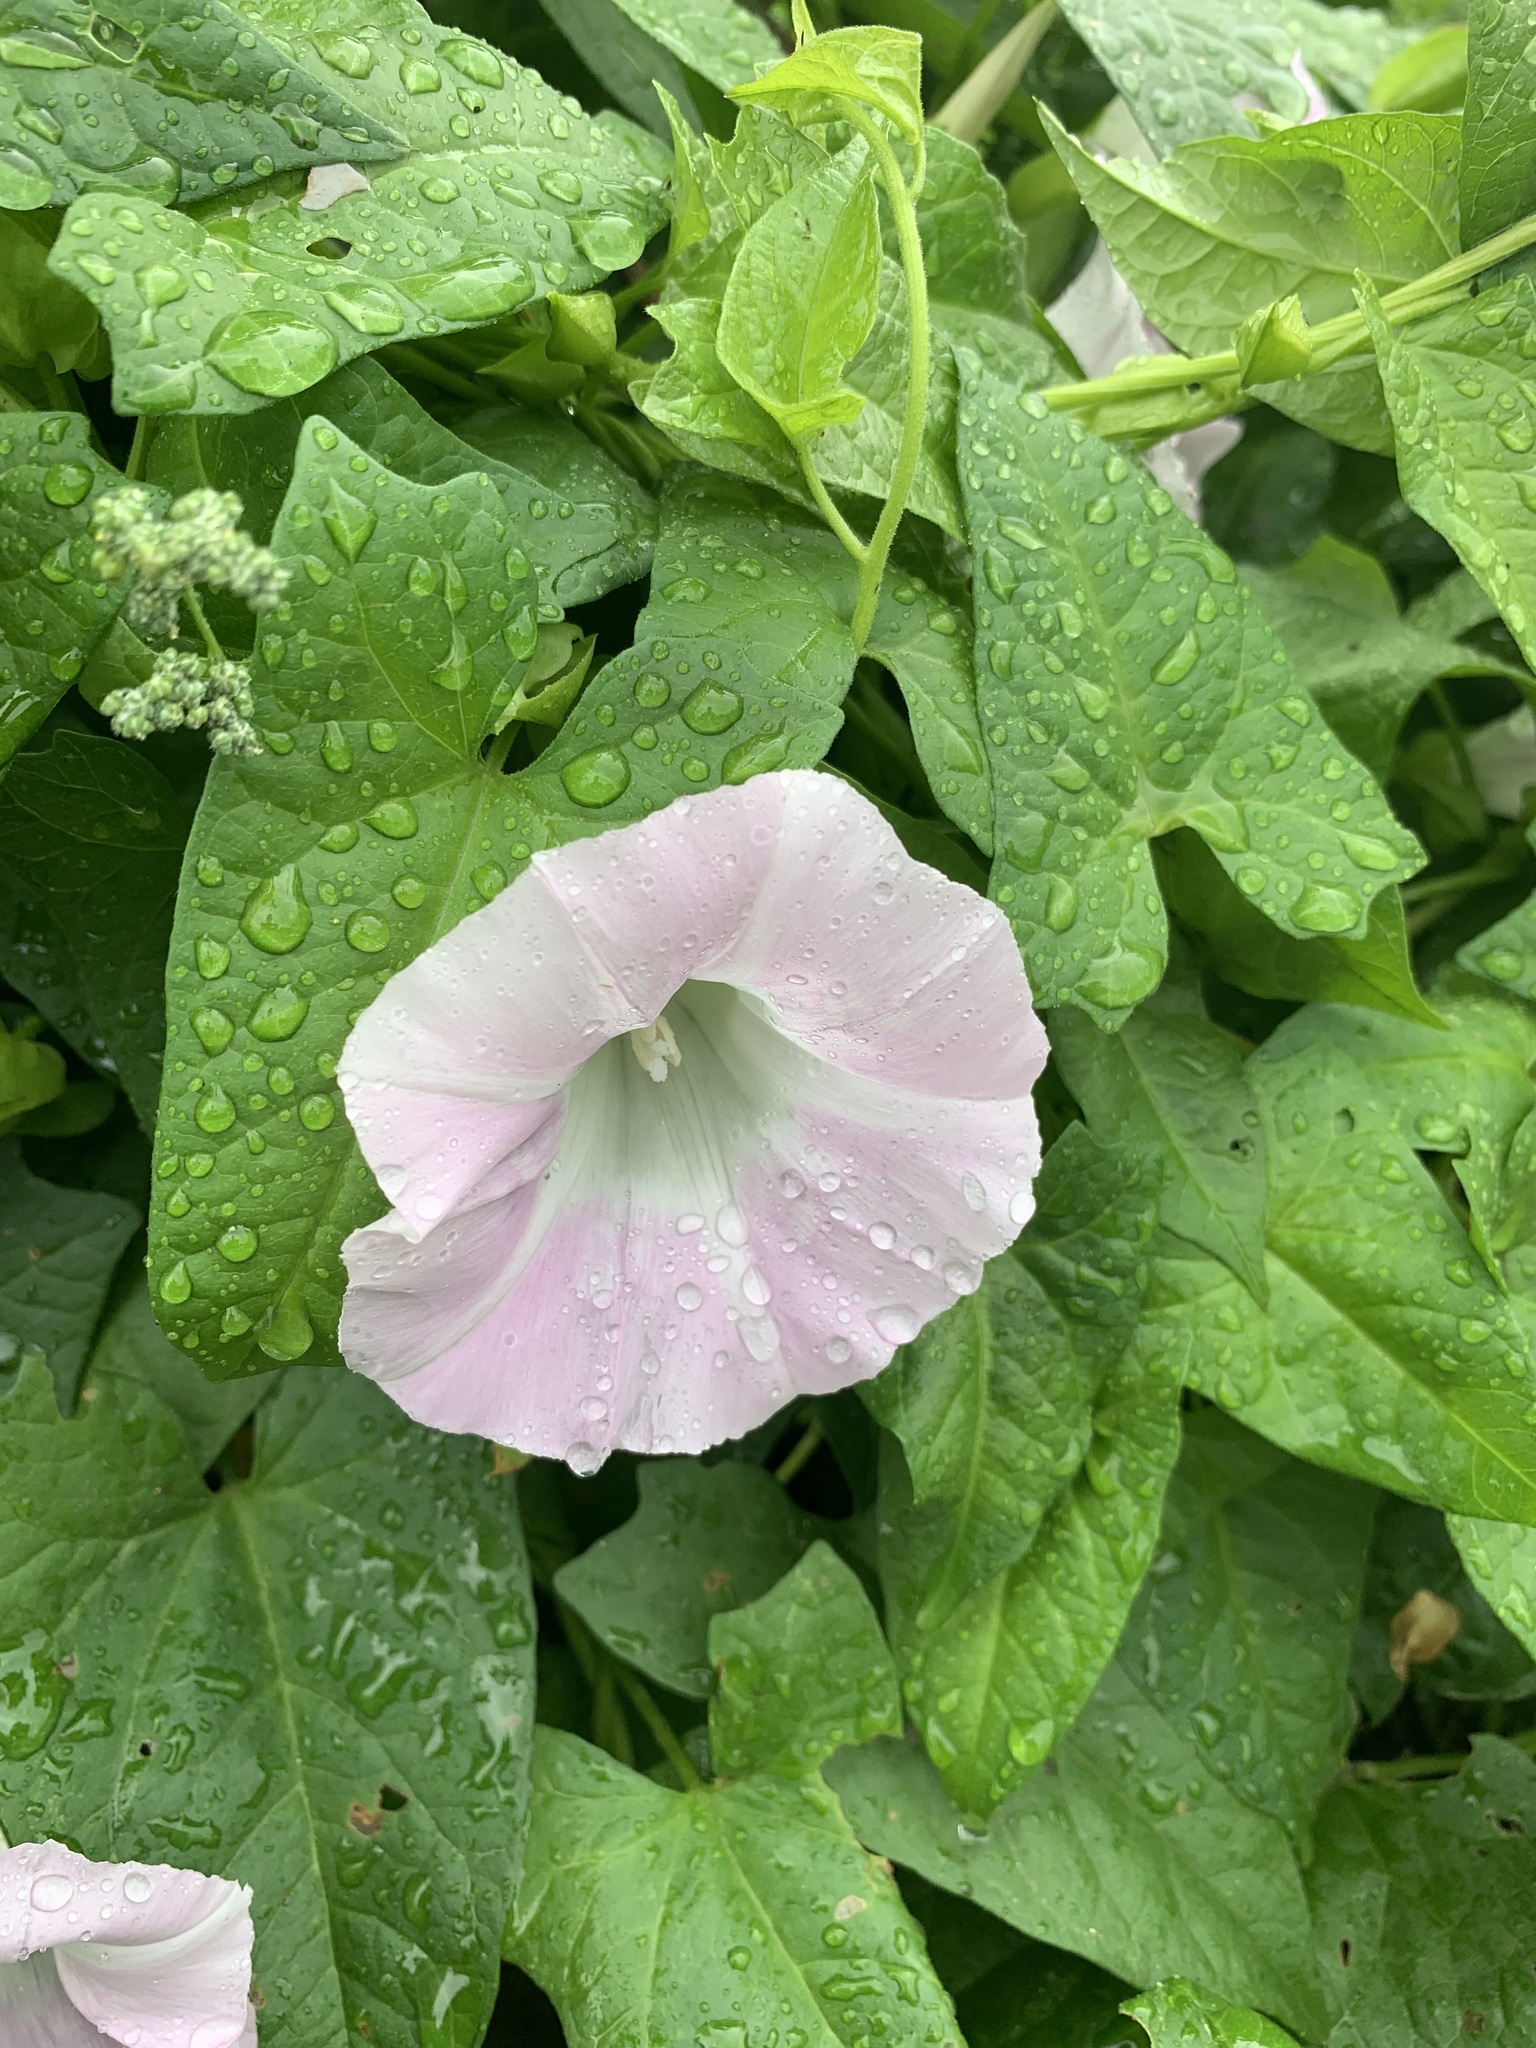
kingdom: Plantae
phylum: Tracheophyta
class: Magnoliopsida
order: Solanales
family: Convolvulaceae
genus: Calystegia
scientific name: Calystegia sepium
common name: Hedge bindweed
